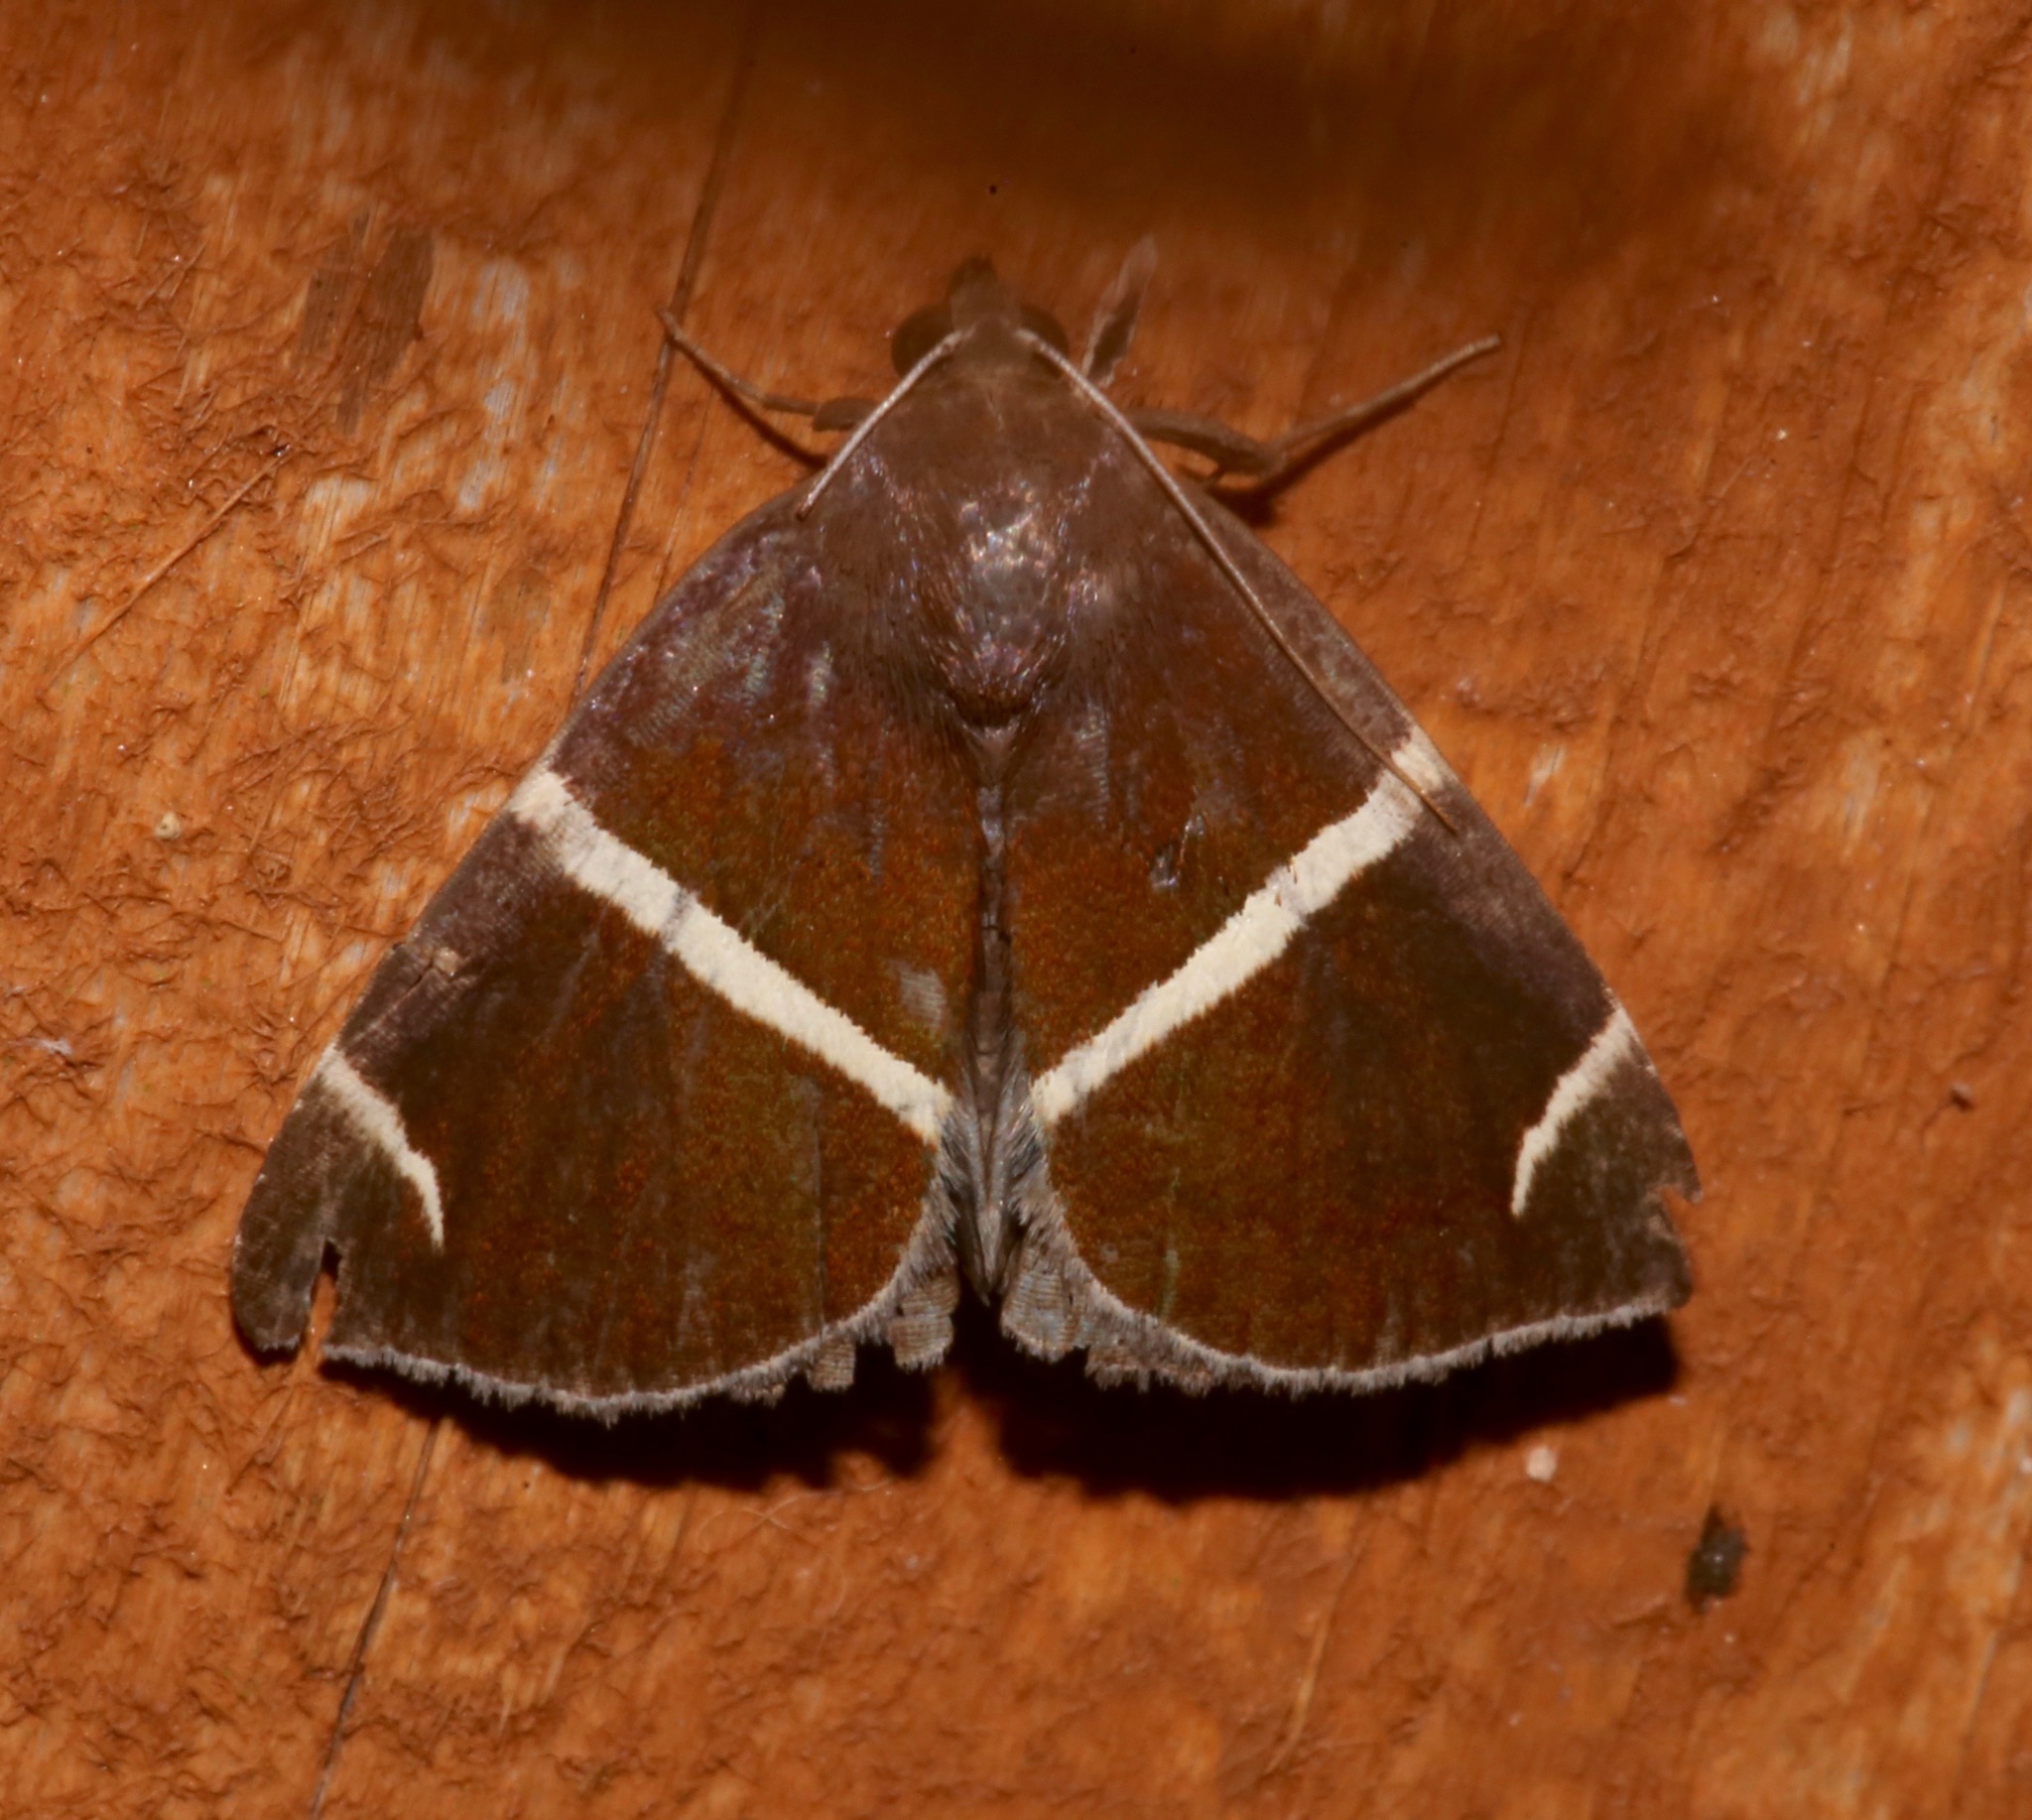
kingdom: Animalia
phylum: Arthropoda
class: Insecta
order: Lepidoptera
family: Erebidae
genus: Argyrostrotis
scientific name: Argyrostrotis anilis
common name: Short-lined chocolate
